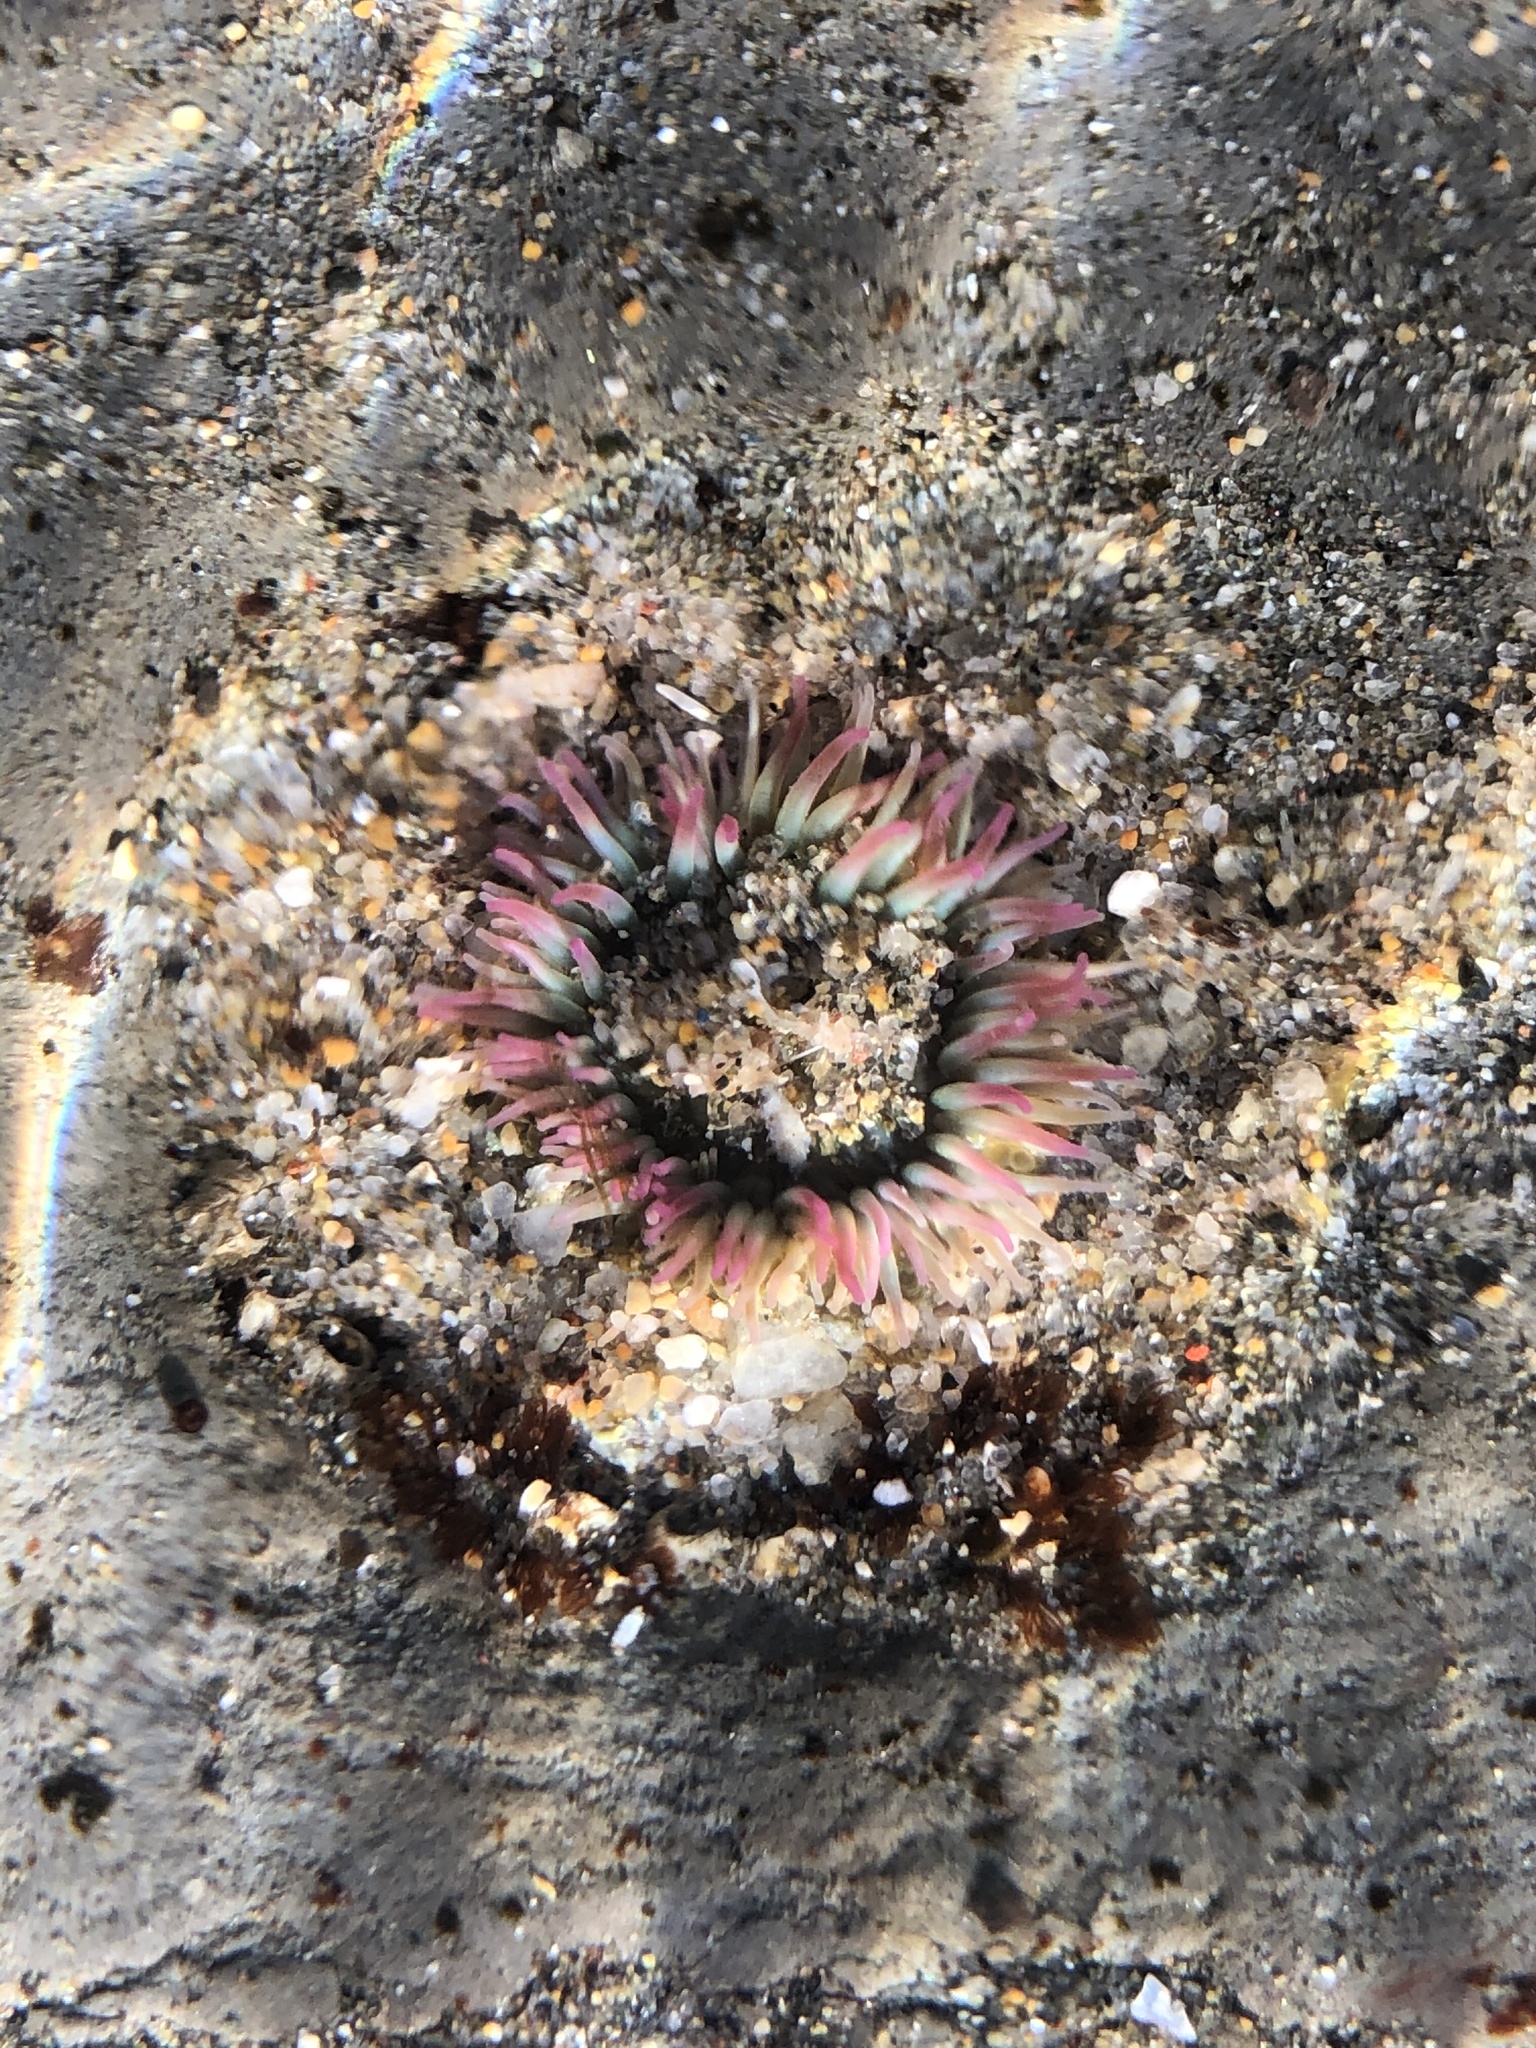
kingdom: Animalia
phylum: Cnidaria
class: Anthozoa
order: Actiniaria
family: Actiniidae
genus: Anthopleura
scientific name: Anthopleura elegantissima
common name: Clonal anemone
